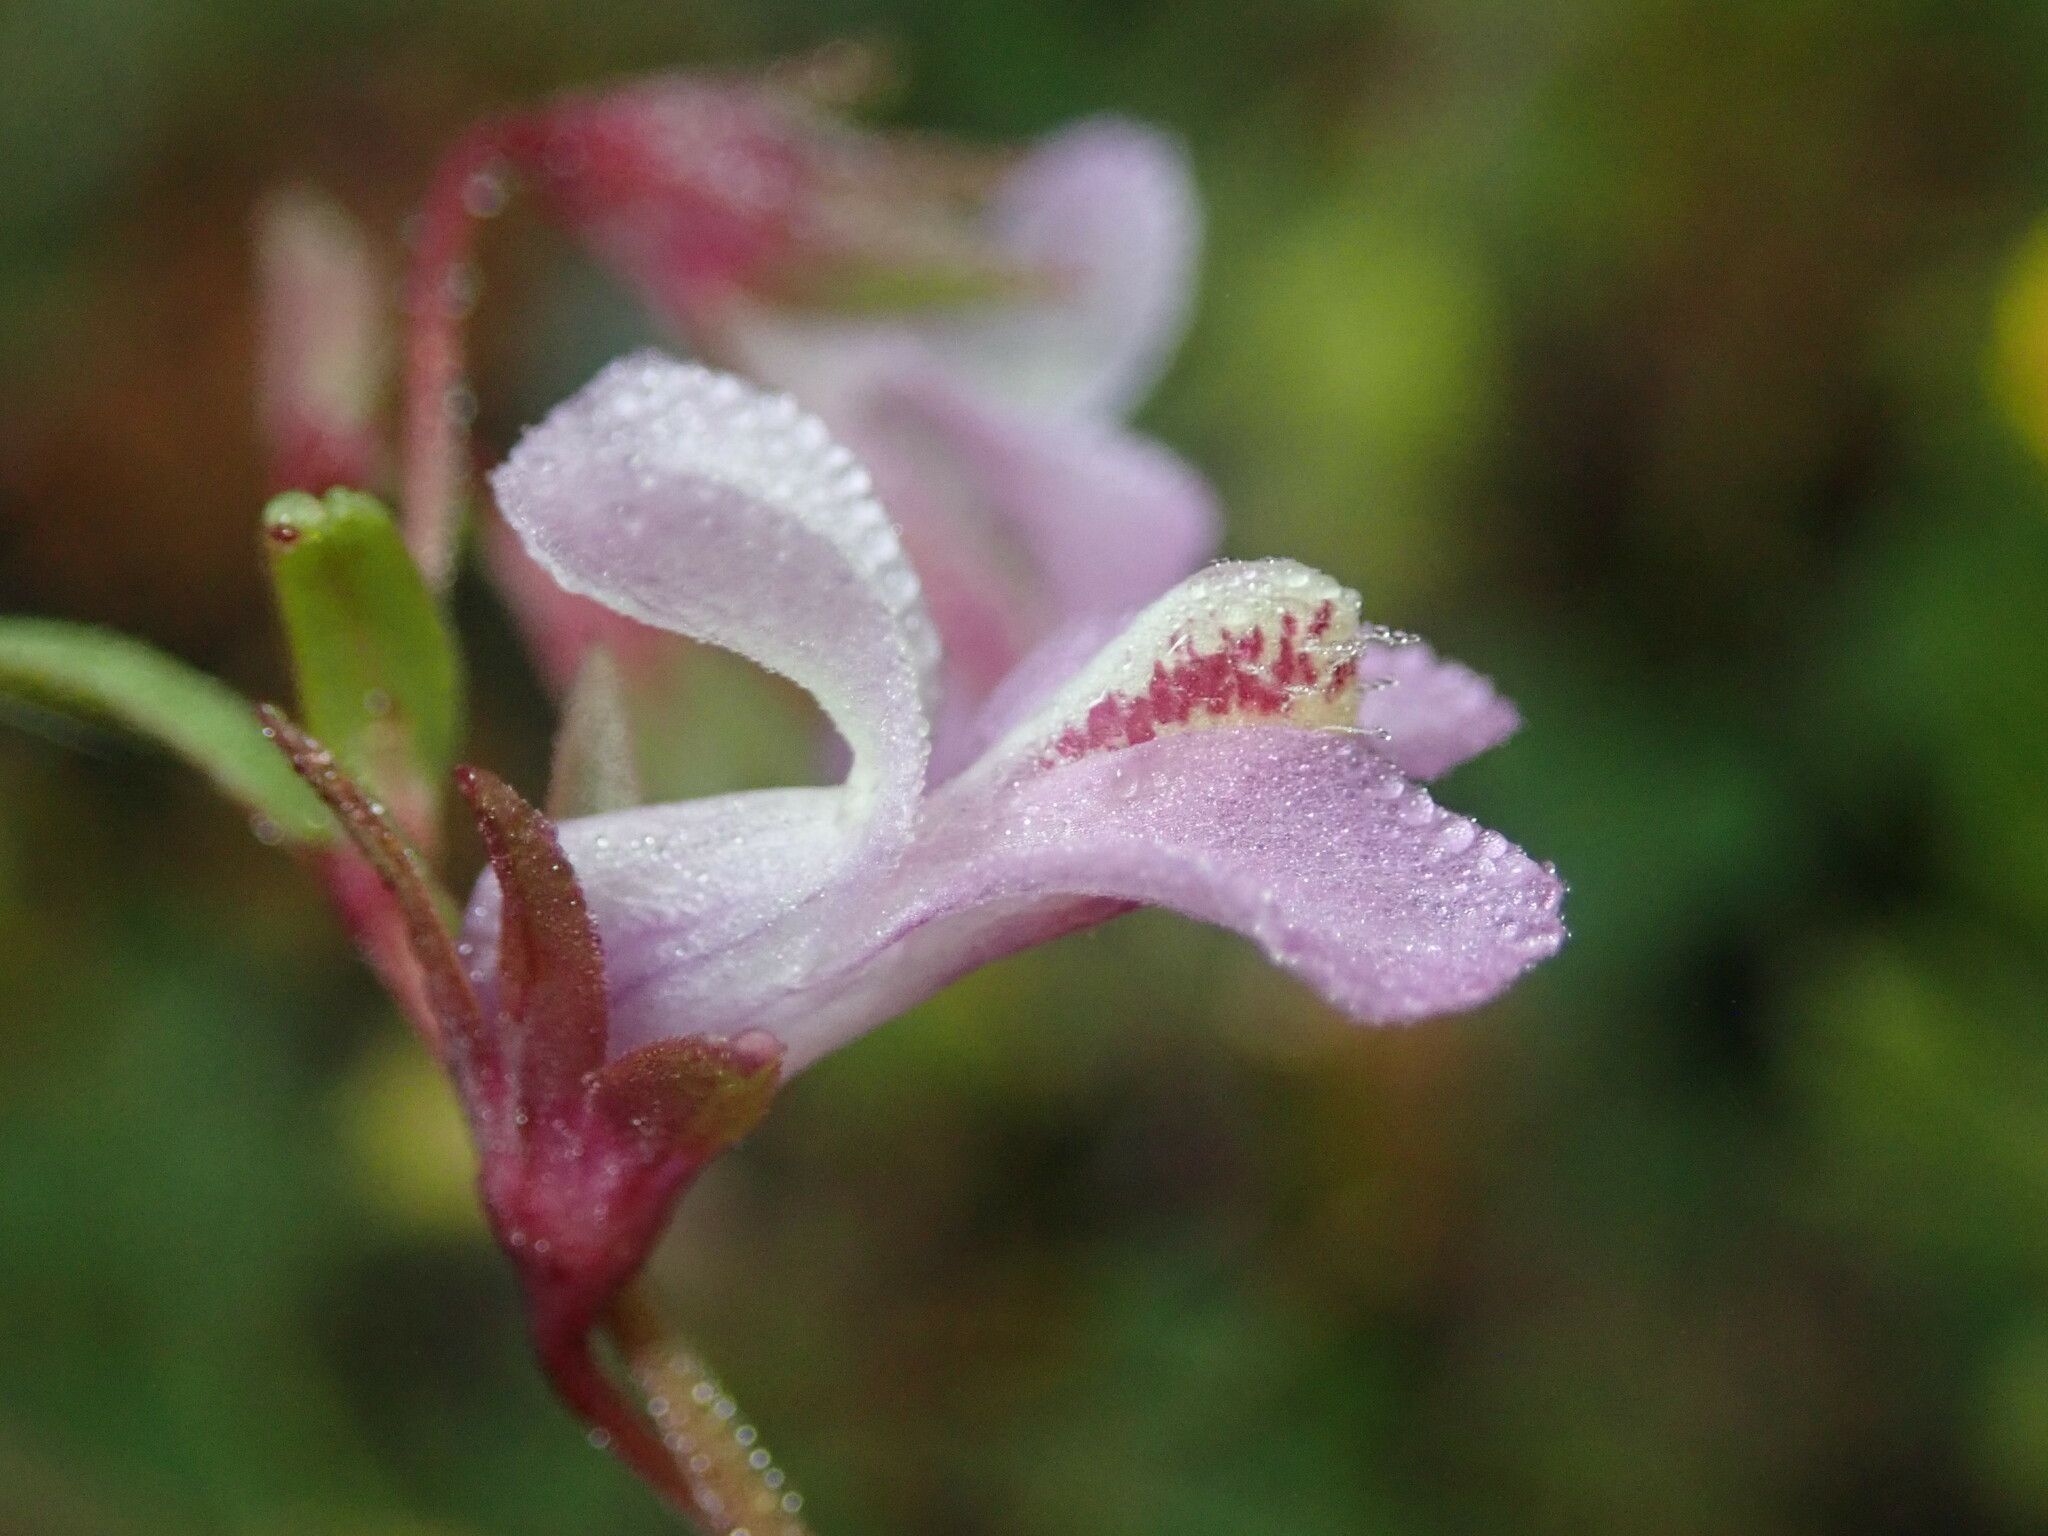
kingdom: Plantae
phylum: Tracheophyta
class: Magnoliopsida
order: Lamiales
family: Plantaginaceae
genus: Collinsia
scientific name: Collinsia sparsiflora
